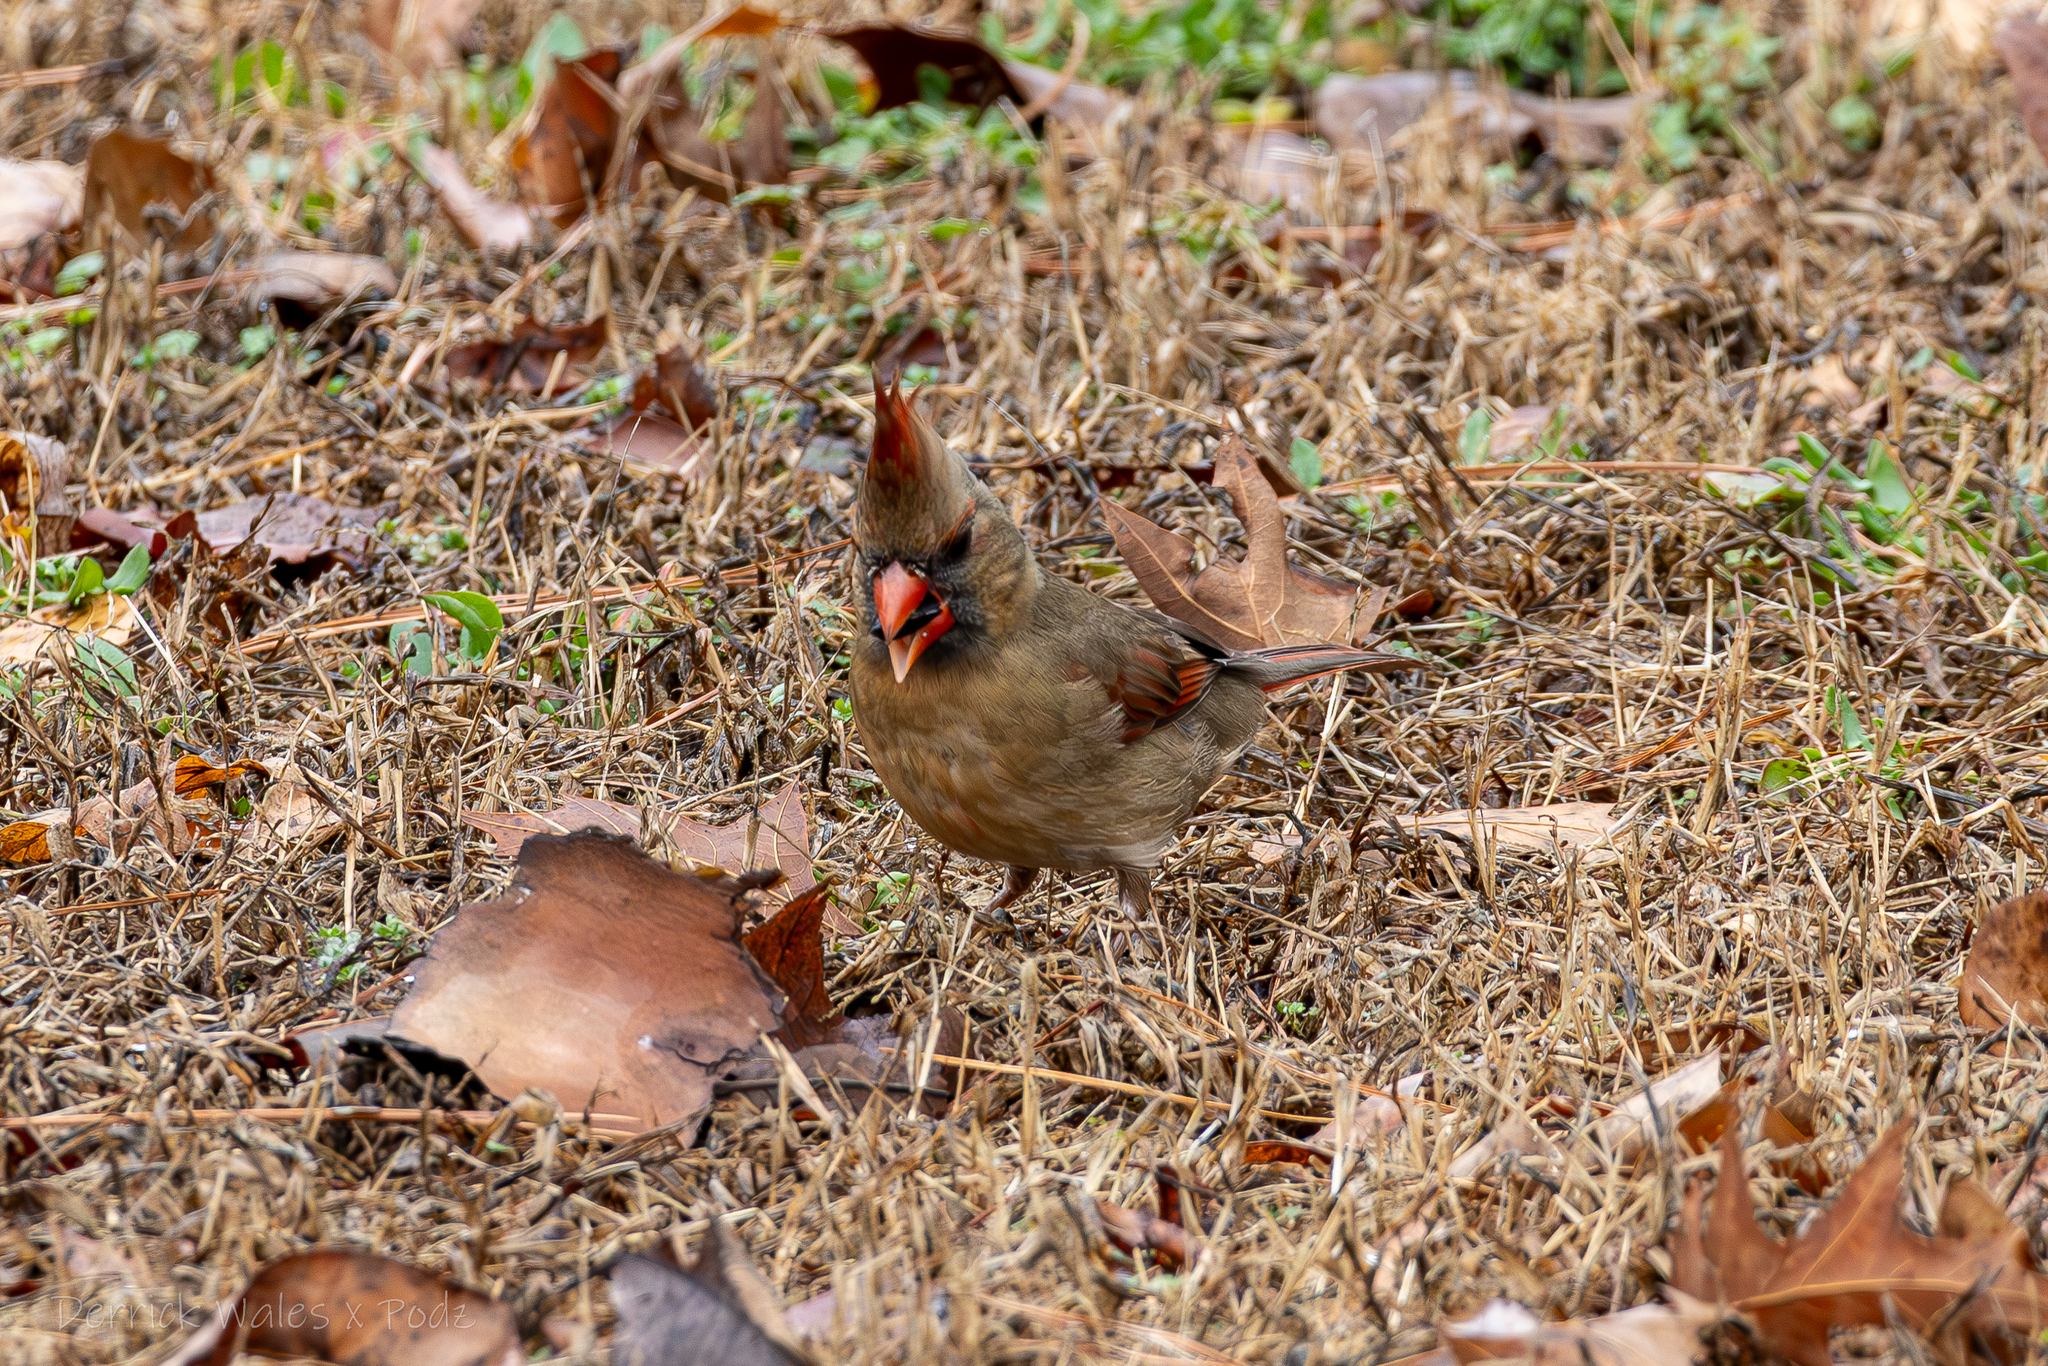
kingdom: Animalia
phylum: Chordata
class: Aves
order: Passeriformes
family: Cardinalidae
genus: Cardinalis
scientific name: Cardinalis cardinalis
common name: Northern cardinal
